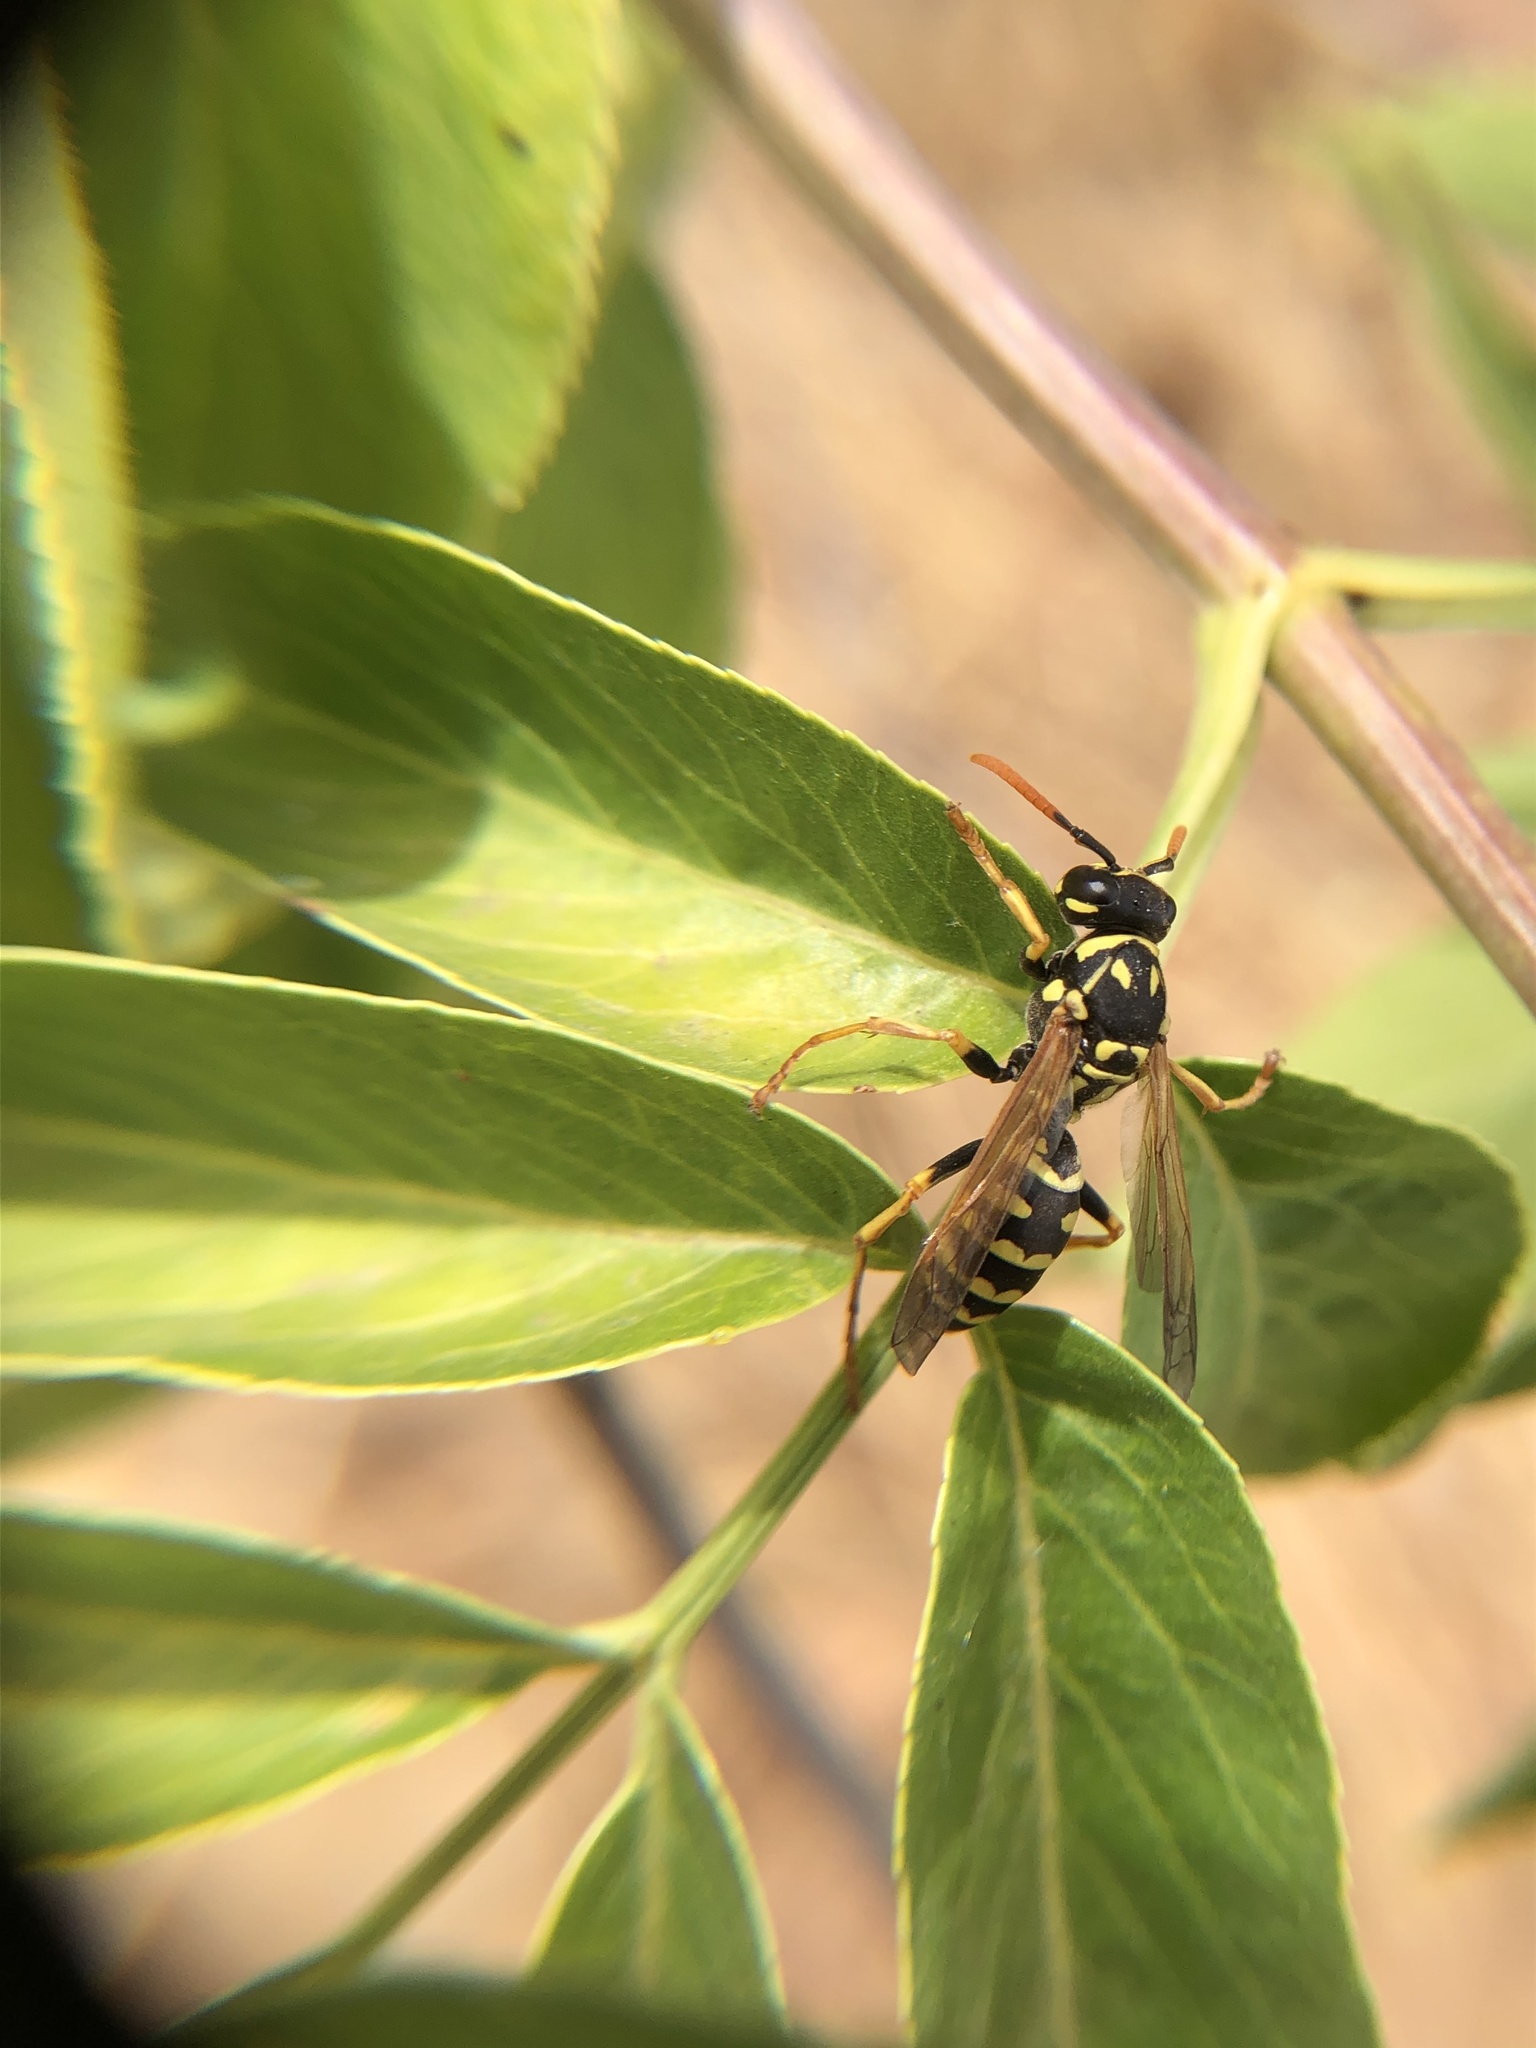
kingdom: Animalia
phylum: Arthropoda
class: Insecta
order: Hymenoptera
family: Eumenidae
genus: Polistes
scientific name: Polistes dominula
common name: Paper wasp
